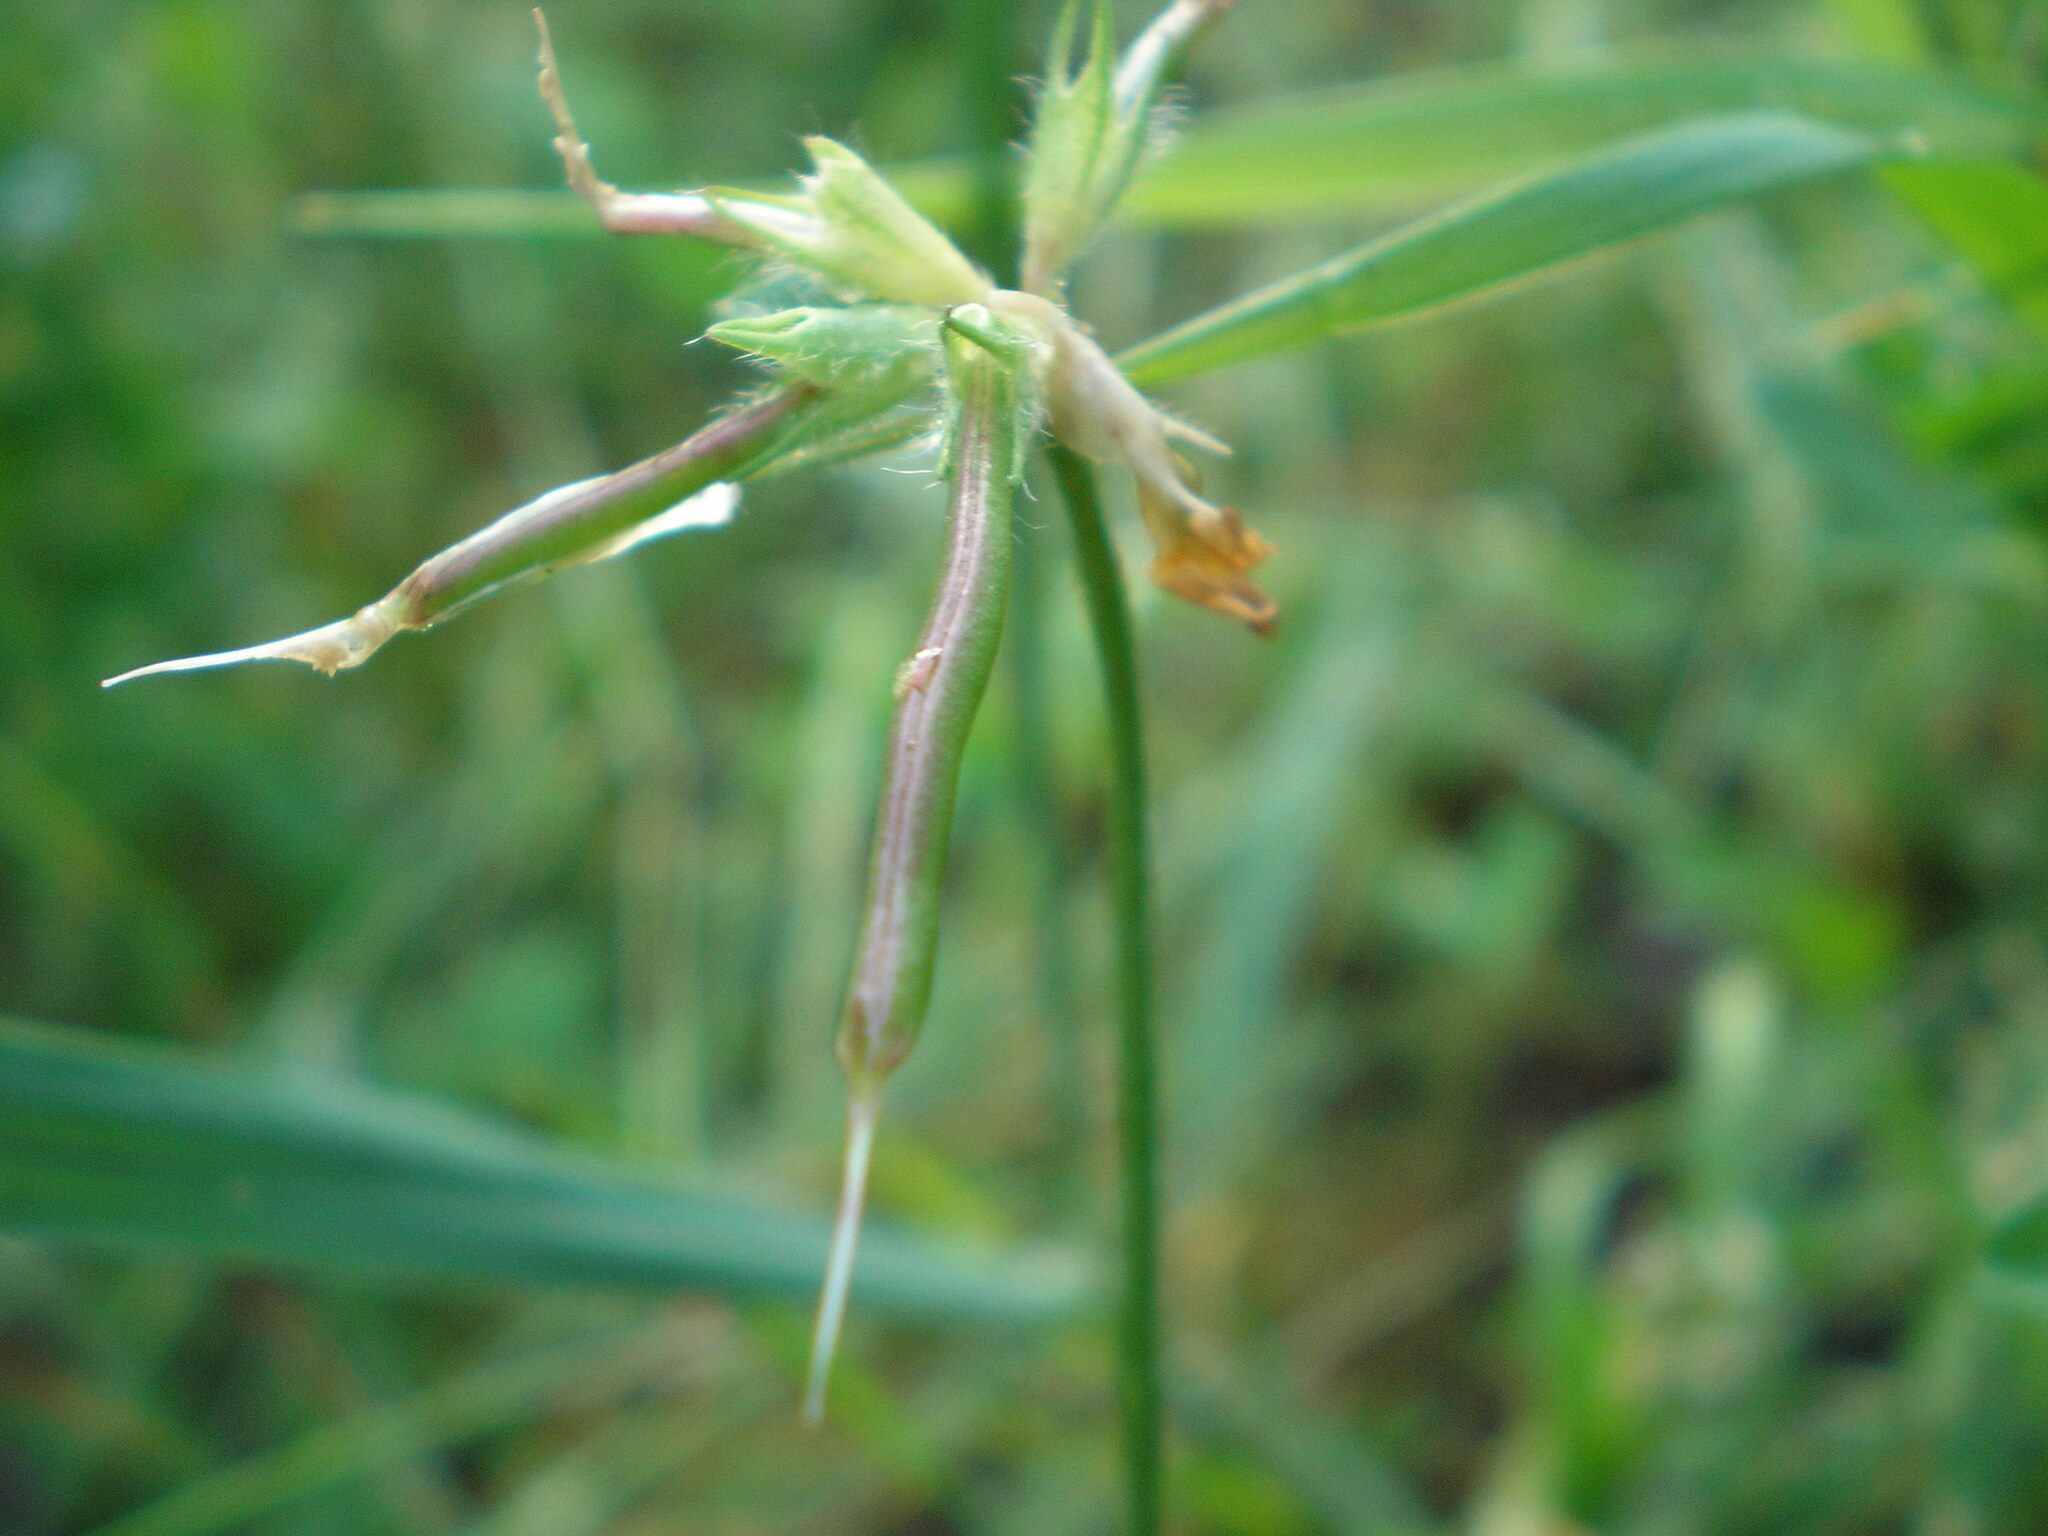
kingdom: Plantae
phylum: Tracheophyta
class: Magnoliopsida
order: Fabales
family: Fabaceae
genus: Lotus
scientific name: Lotus corniculatus
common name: Common bird's-foot-trefoil
